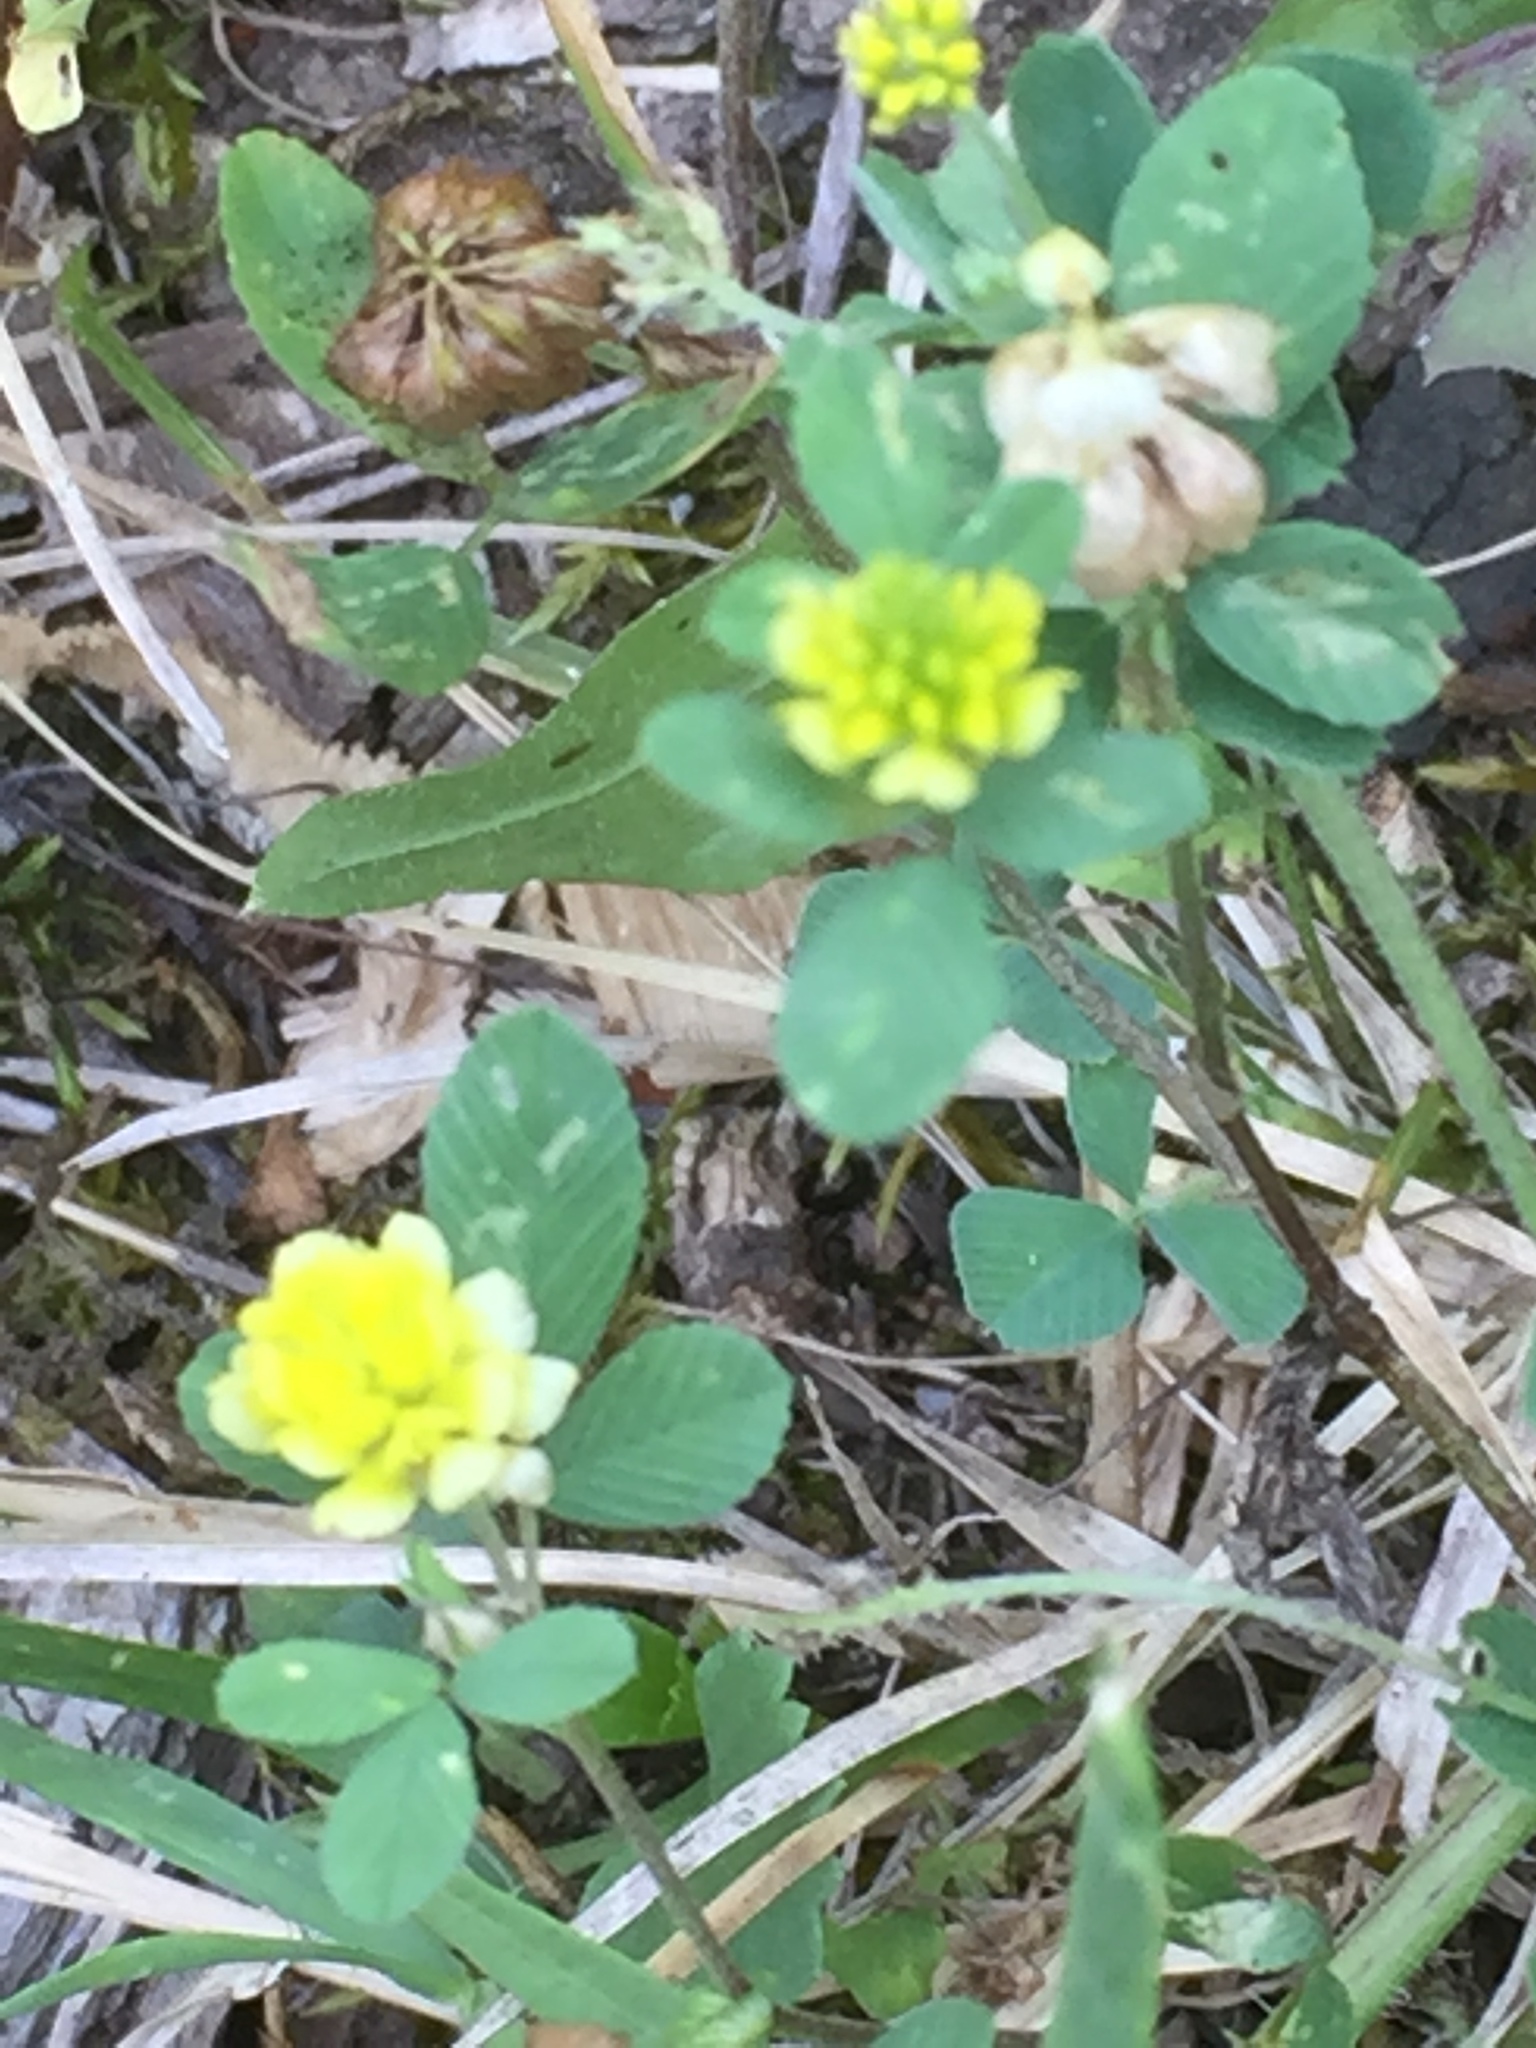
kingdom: Plantae
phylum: Tracheophyta
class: Magnoliopsida
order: Fabales
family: Fabaceae
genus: Trifolium
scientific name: Trifolium campestre
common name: Field clover
